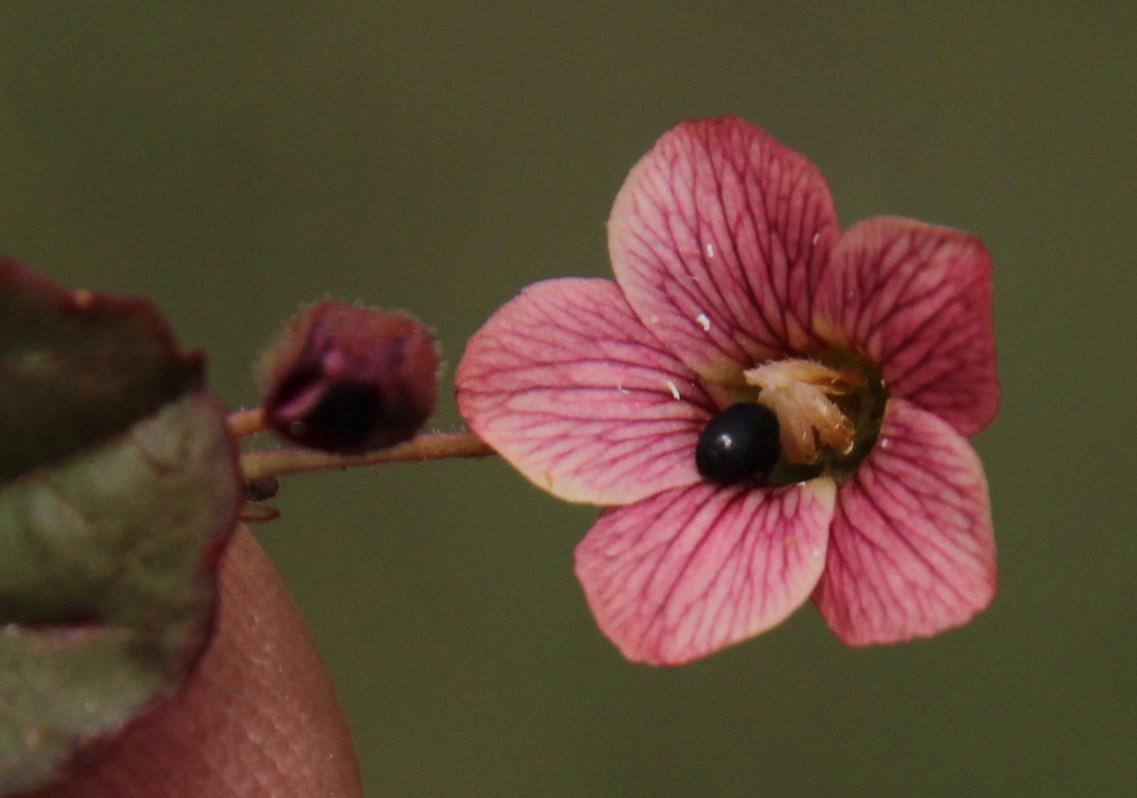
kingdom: Plantae
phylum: Tracheophyta
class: Magnoliopsida
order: Malvales
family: Malvaceae
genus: Hermannia
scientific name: Hermannia depressa
